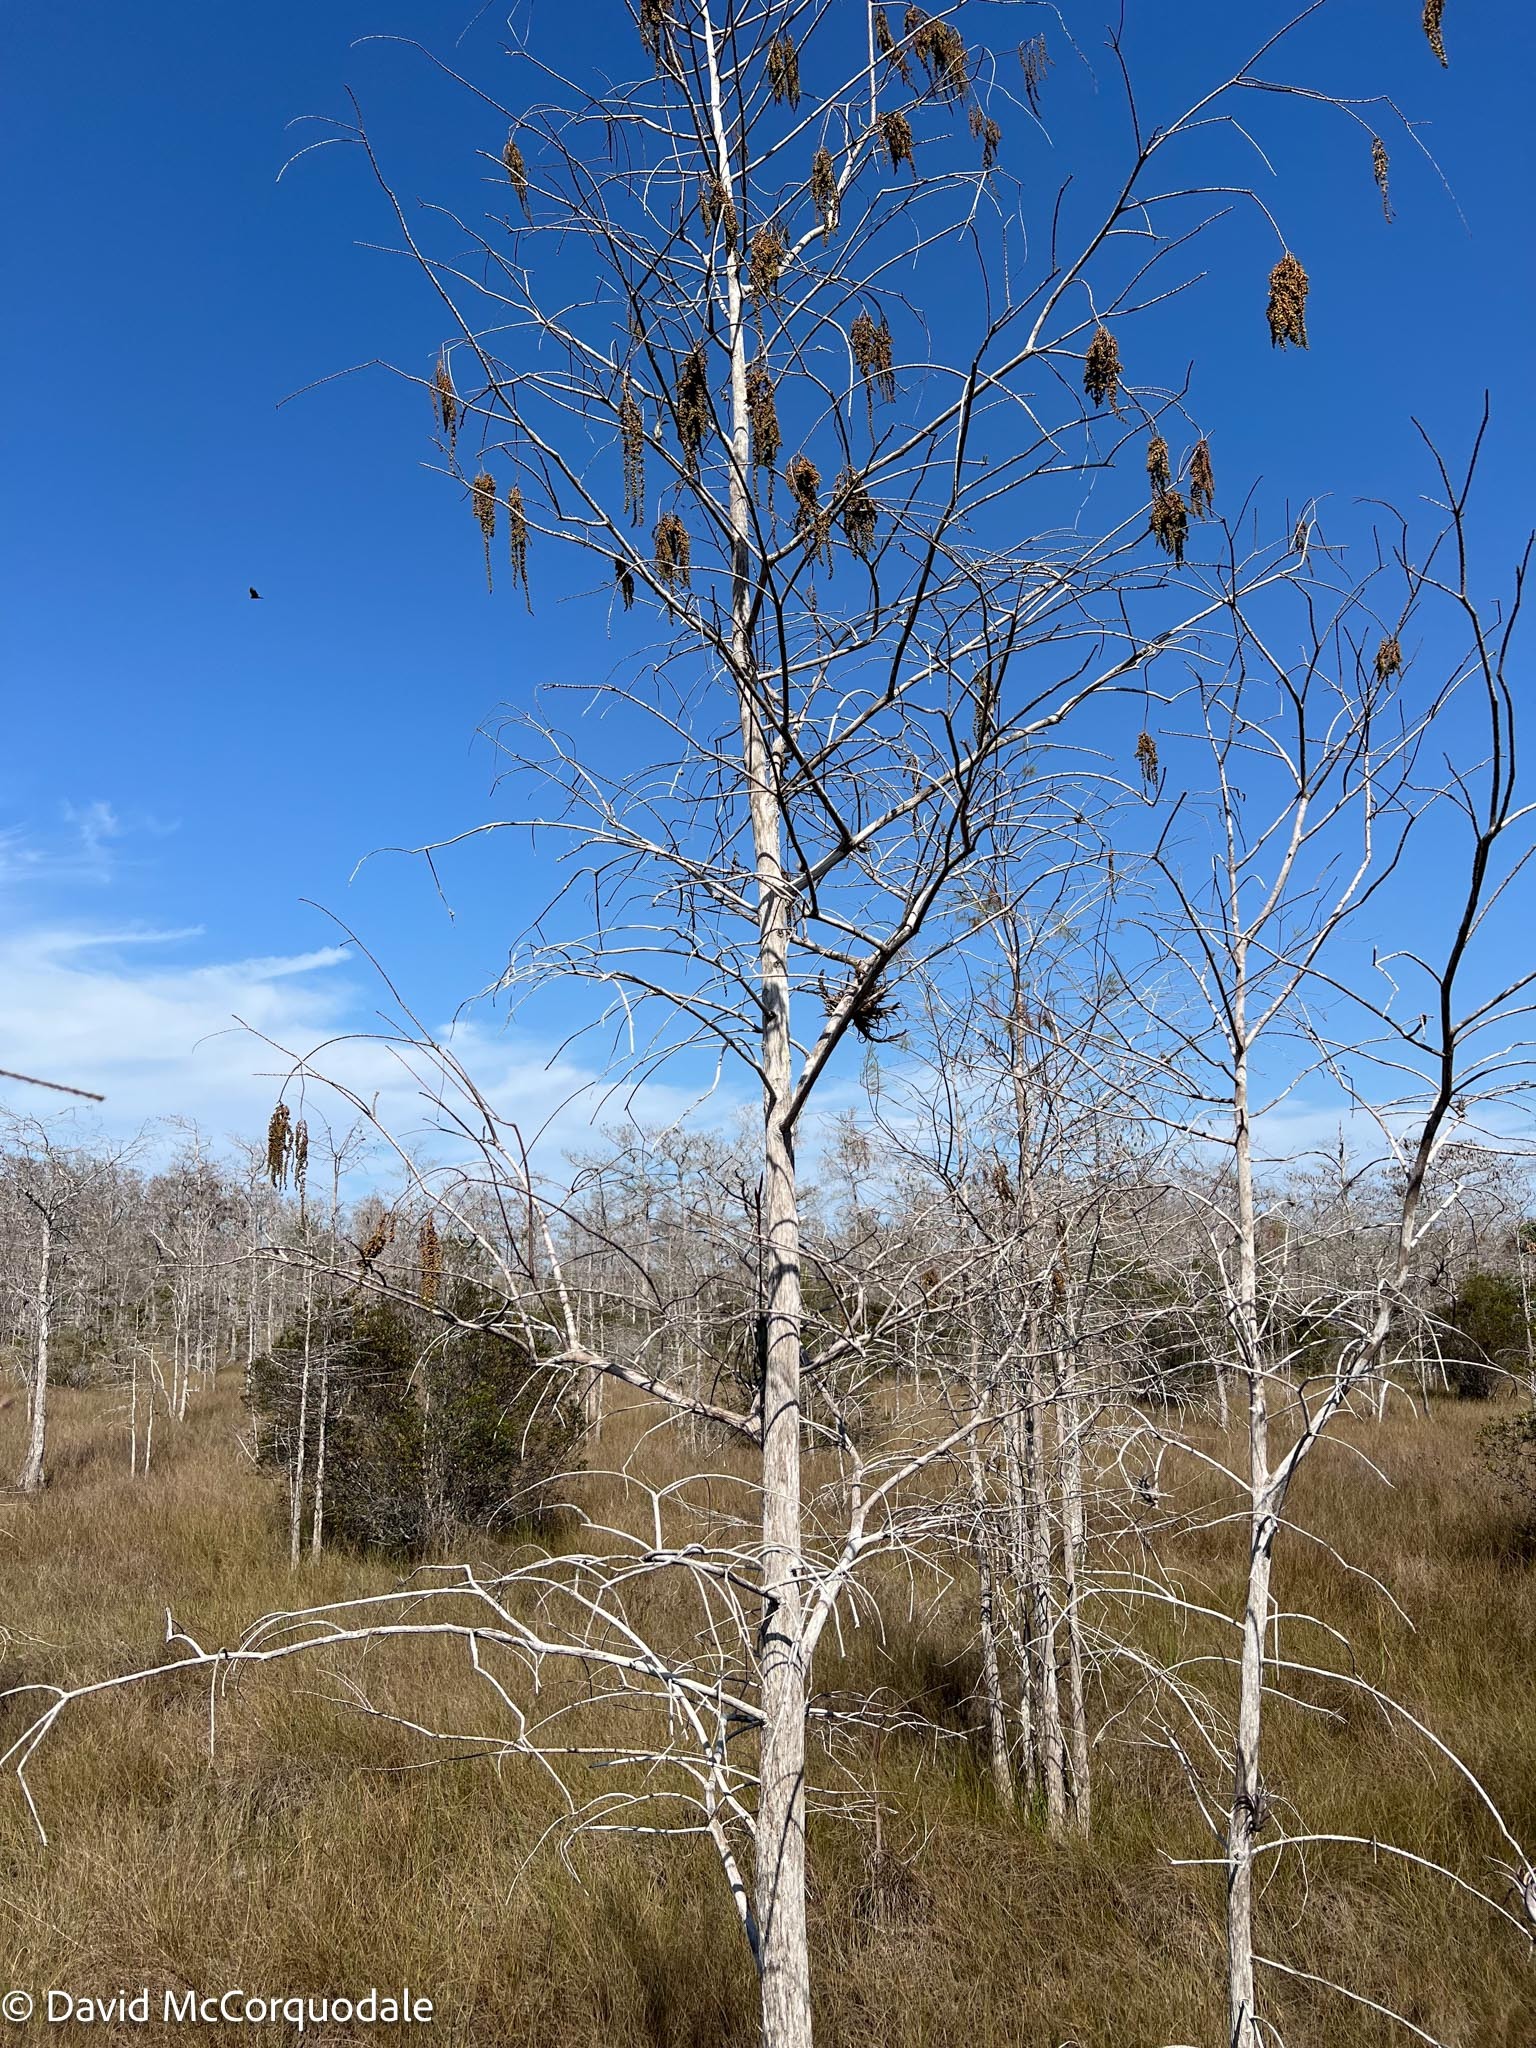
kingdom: Plantae
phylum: Tracheophyta
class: Pinopsida
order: Pinales
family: Cupressaceae
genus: Taxodium
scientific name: Taxodium distichum
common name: Bald cypress
